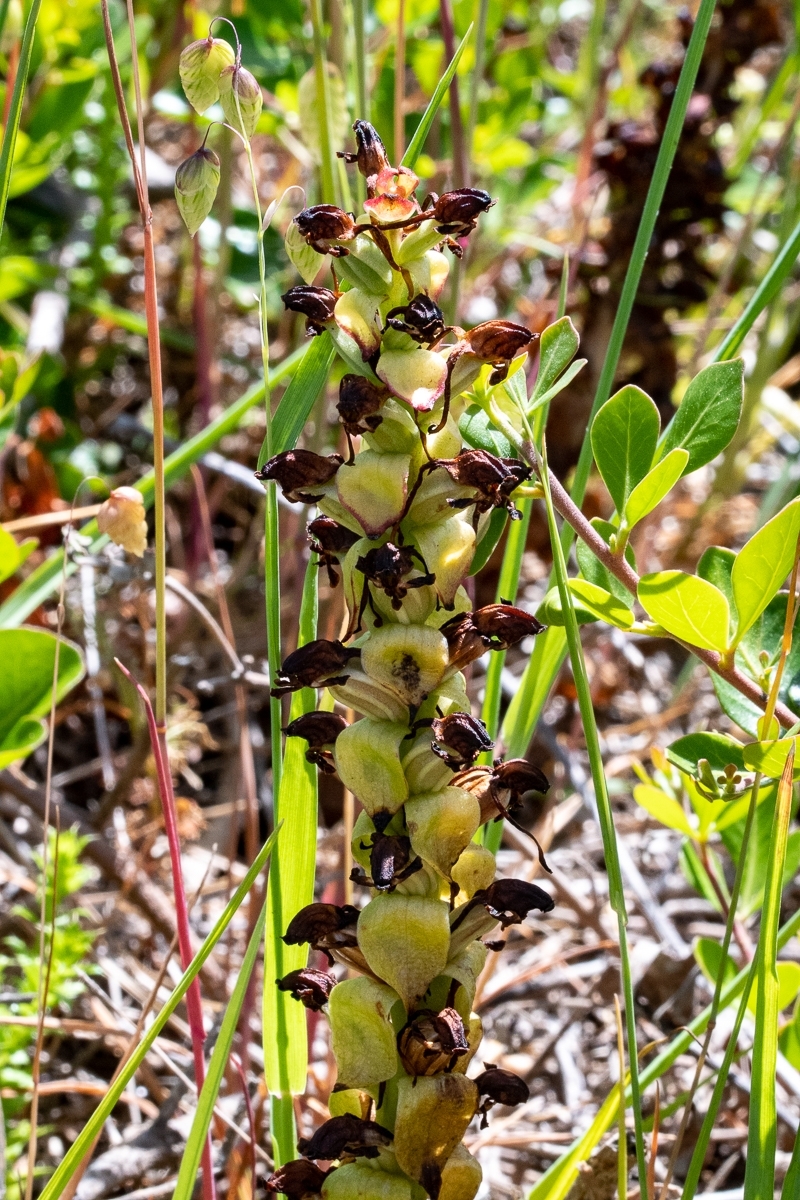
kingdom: Plantae
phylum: Tracheophyta
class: Liliopsida
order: Asparagales
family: Orchidaceae
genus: Satyrium
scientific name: Satyrium odorum
